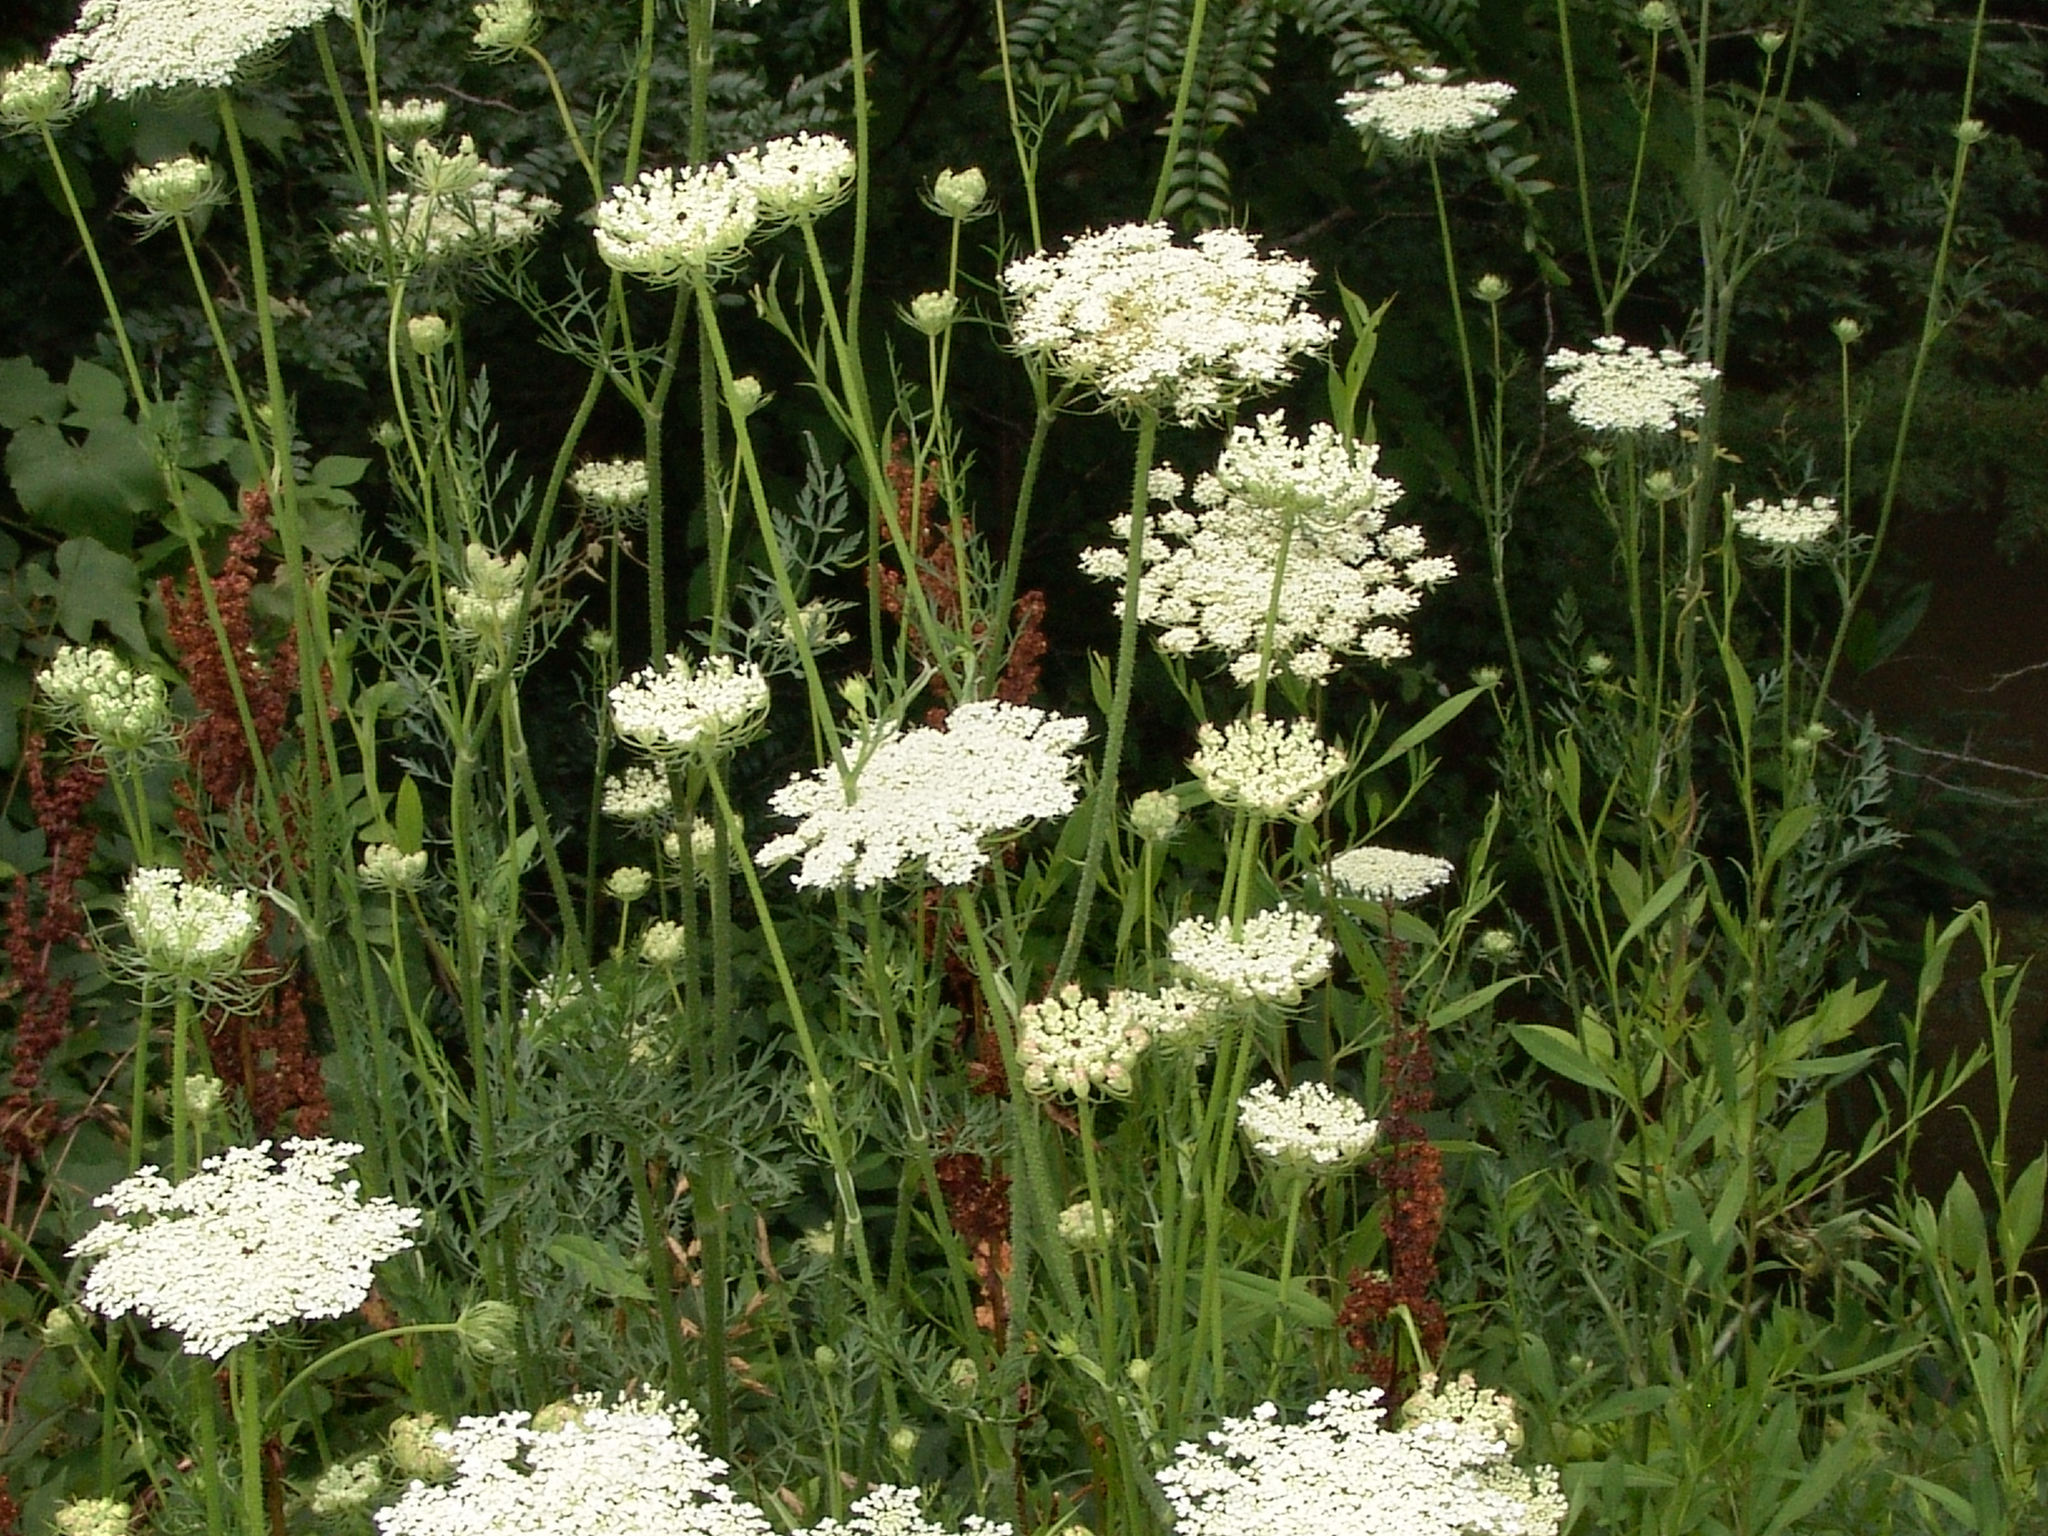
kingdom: Plantae
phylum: Tracheophyta
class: Magnoliopsida
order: Apiales
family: Apiaceae
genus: Daucus
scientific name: Daucus carota
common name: Wild carrot
